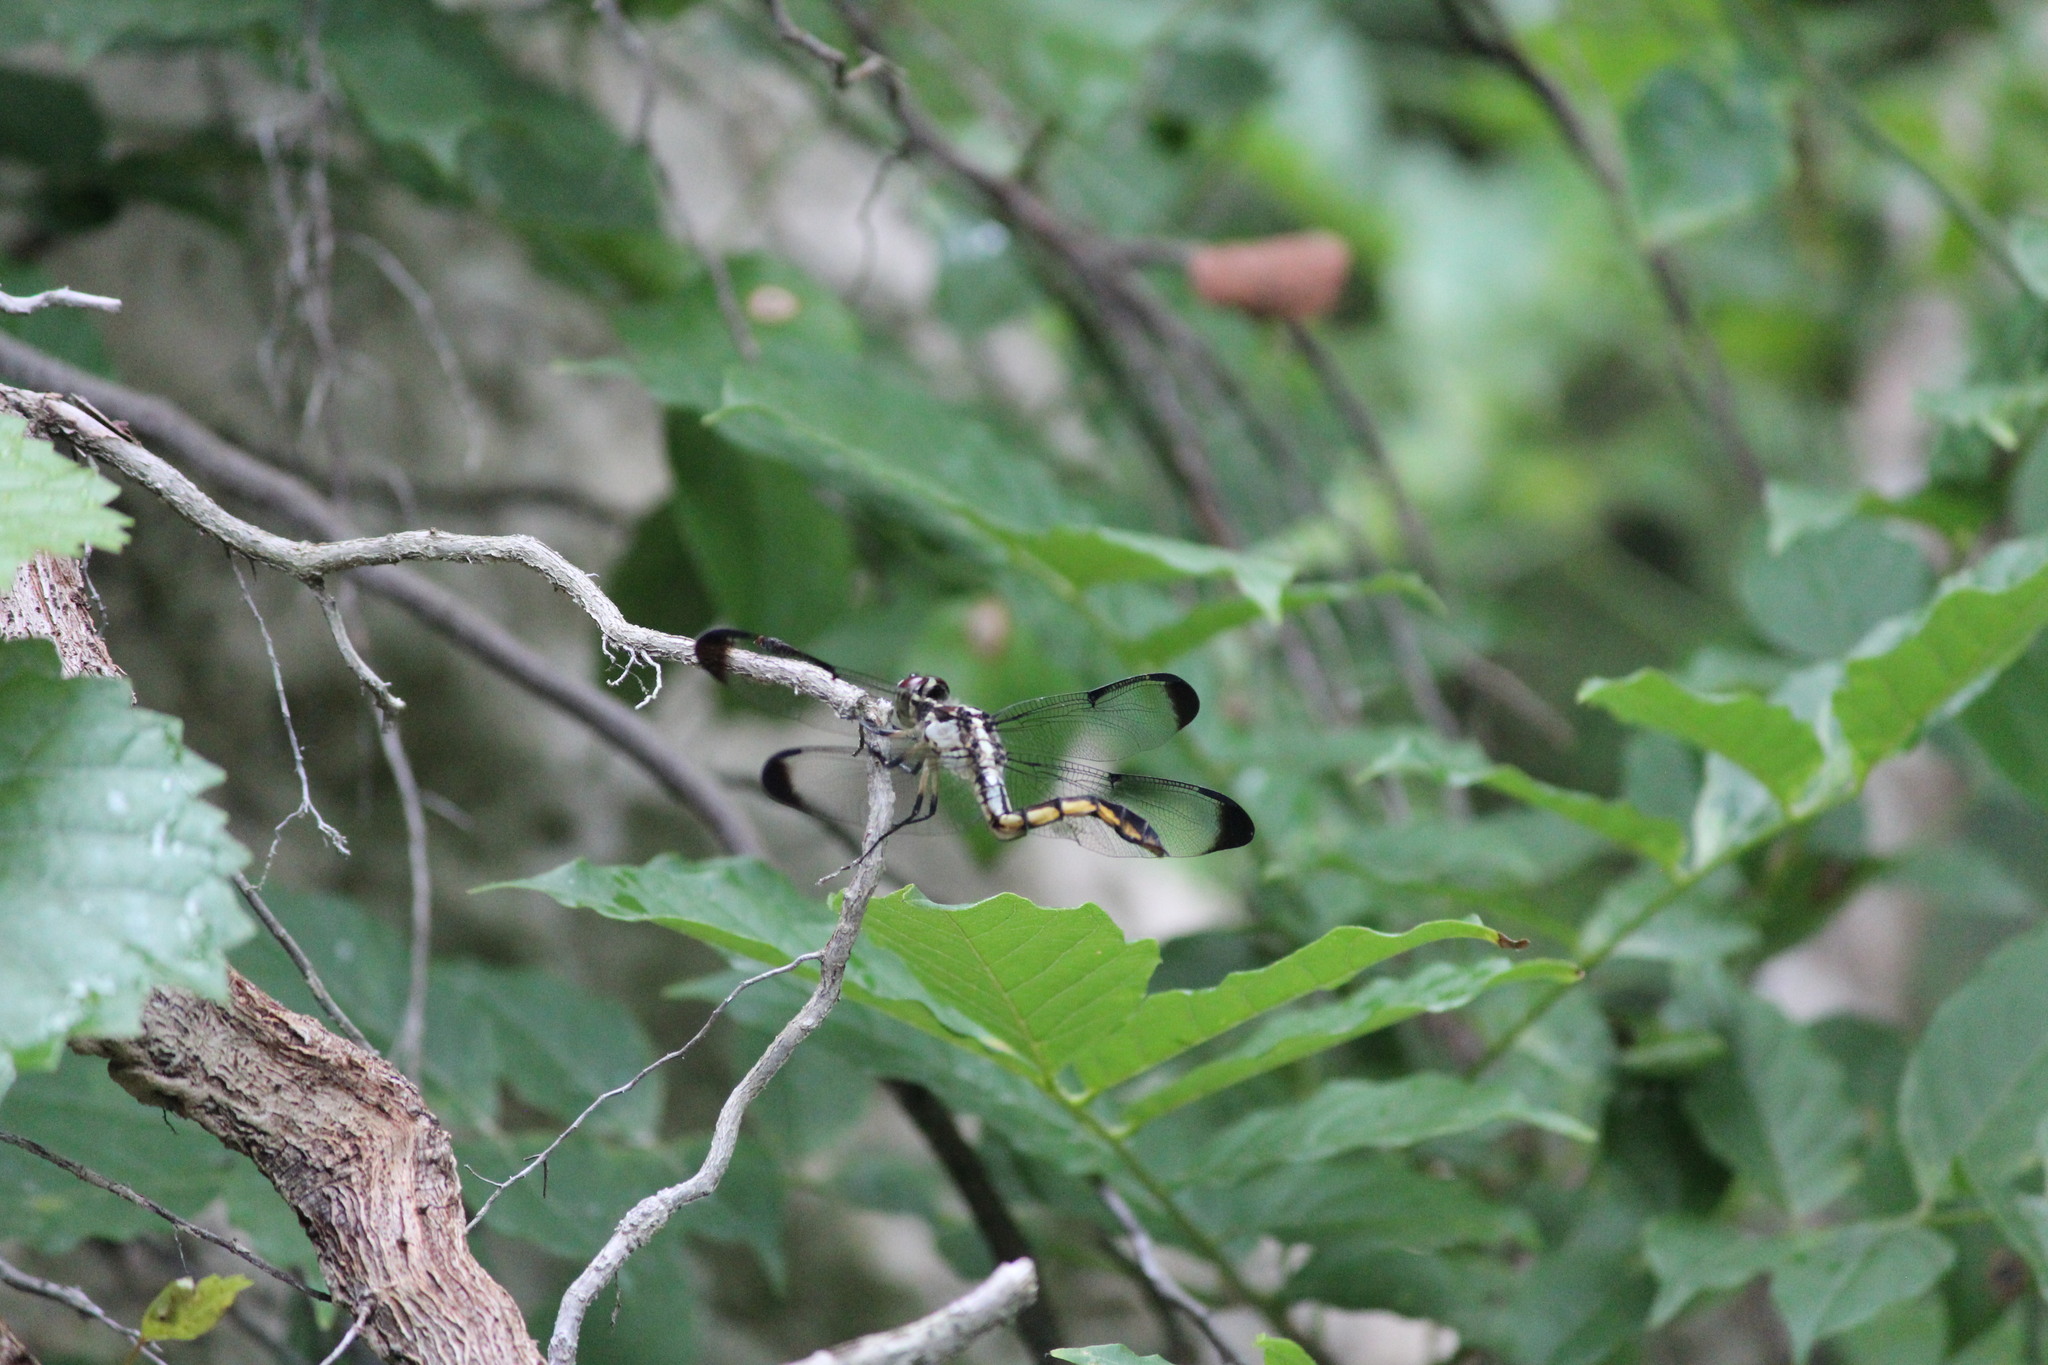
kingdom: Animalia
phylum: Arthropoda
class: Insecta
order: Odonata
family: Libellulidae
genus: Libellula
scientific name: Libellula vibrans
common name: Great blue skimmer
